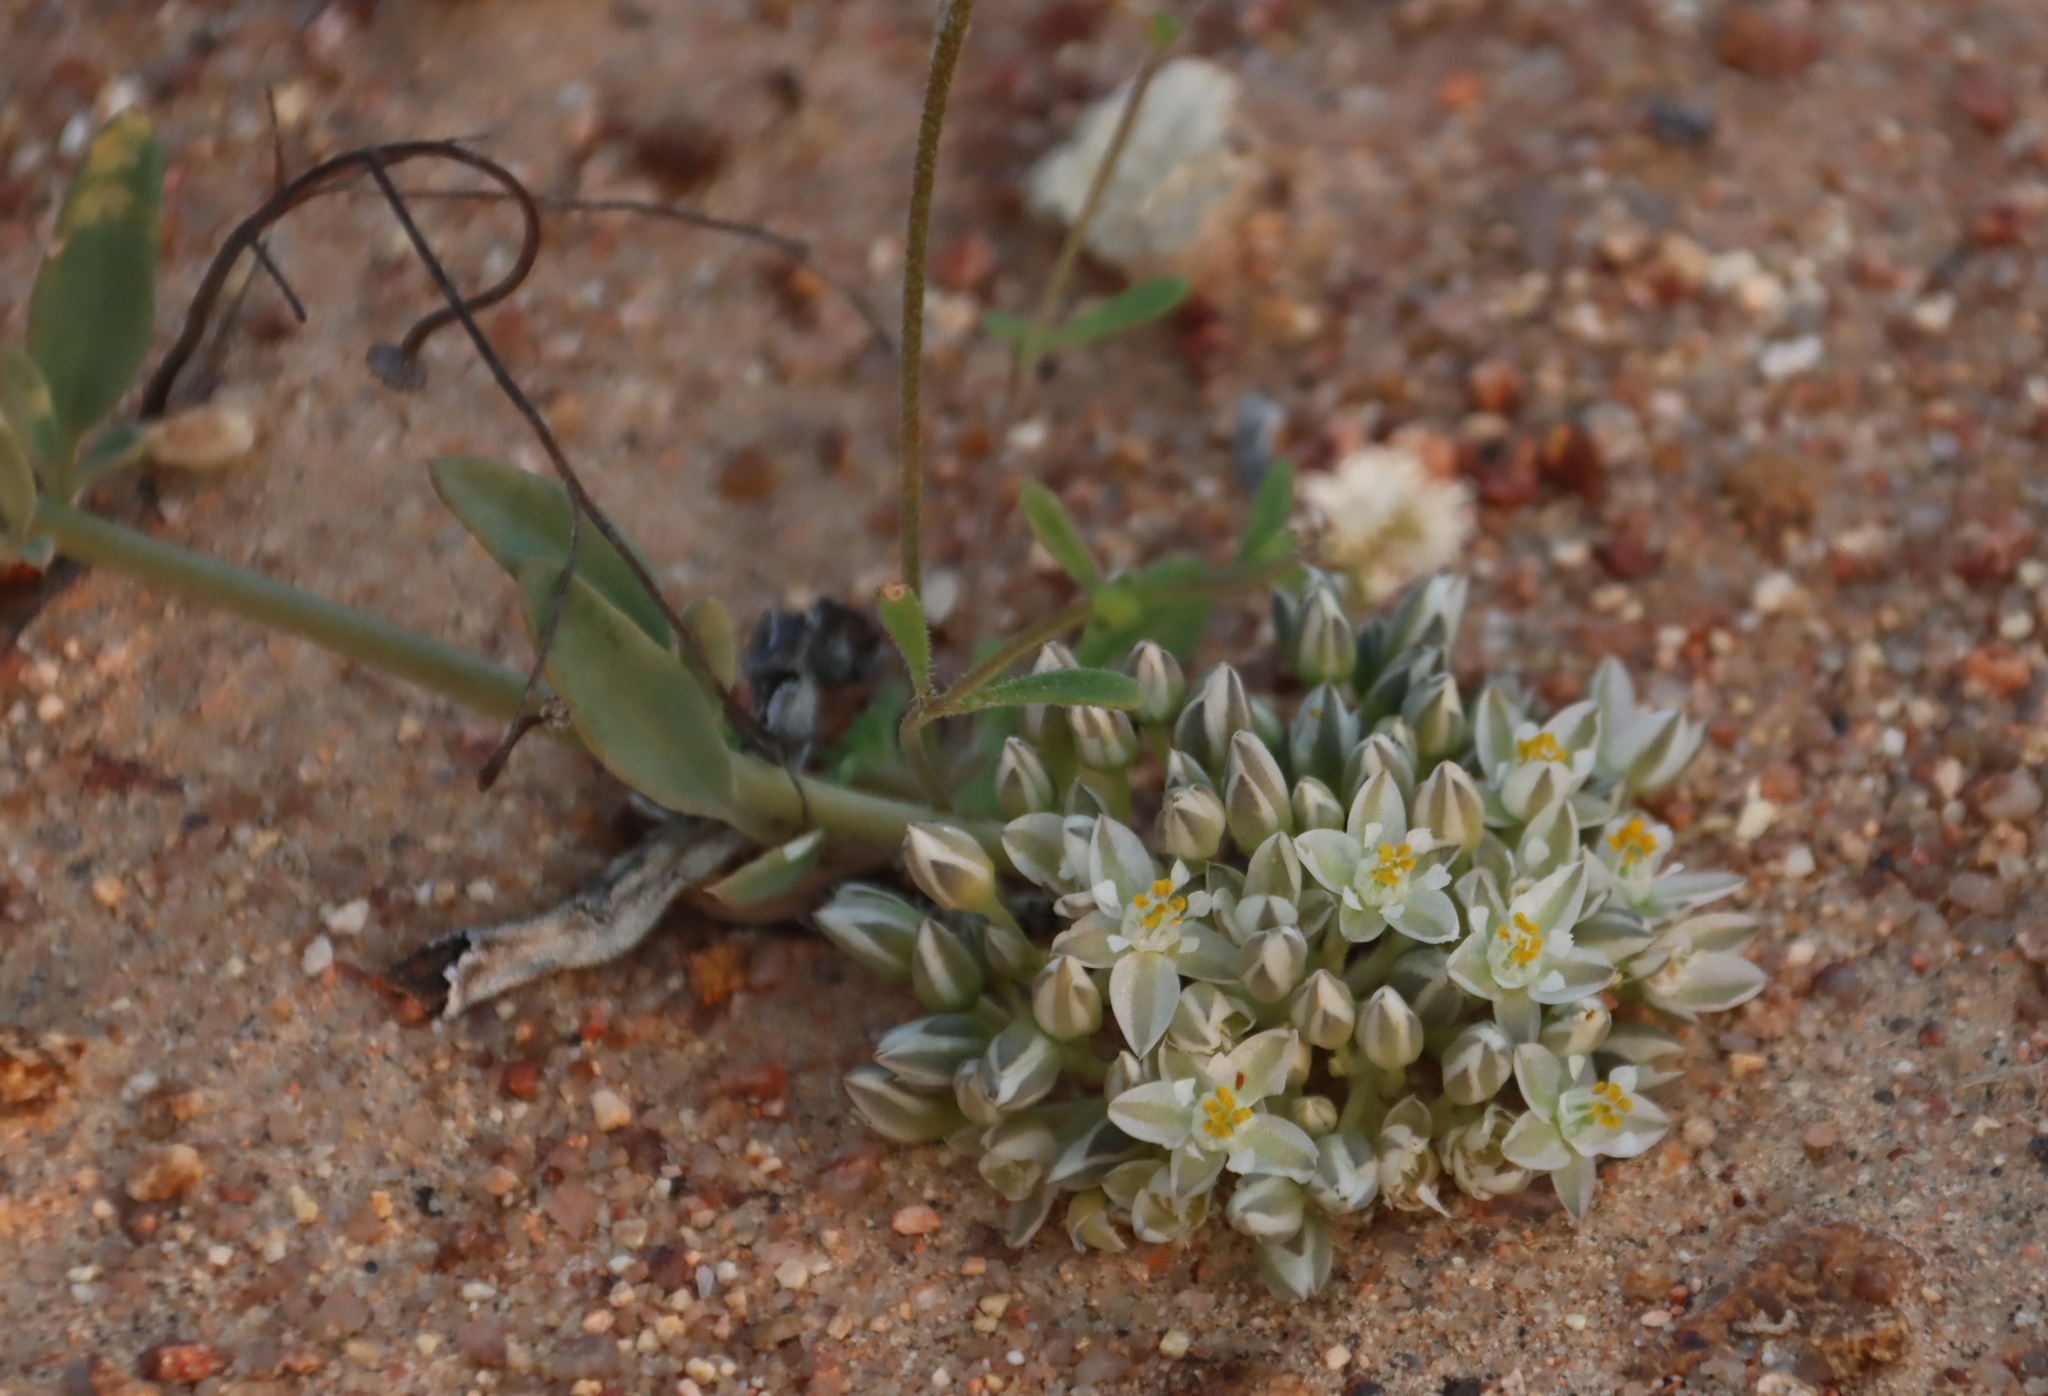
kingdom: Plantae
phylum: Tracheophyta
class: Magnoliopsida
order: Caryophyllales
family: Limeaceae
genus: Limeum
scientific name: Limeum africanum
